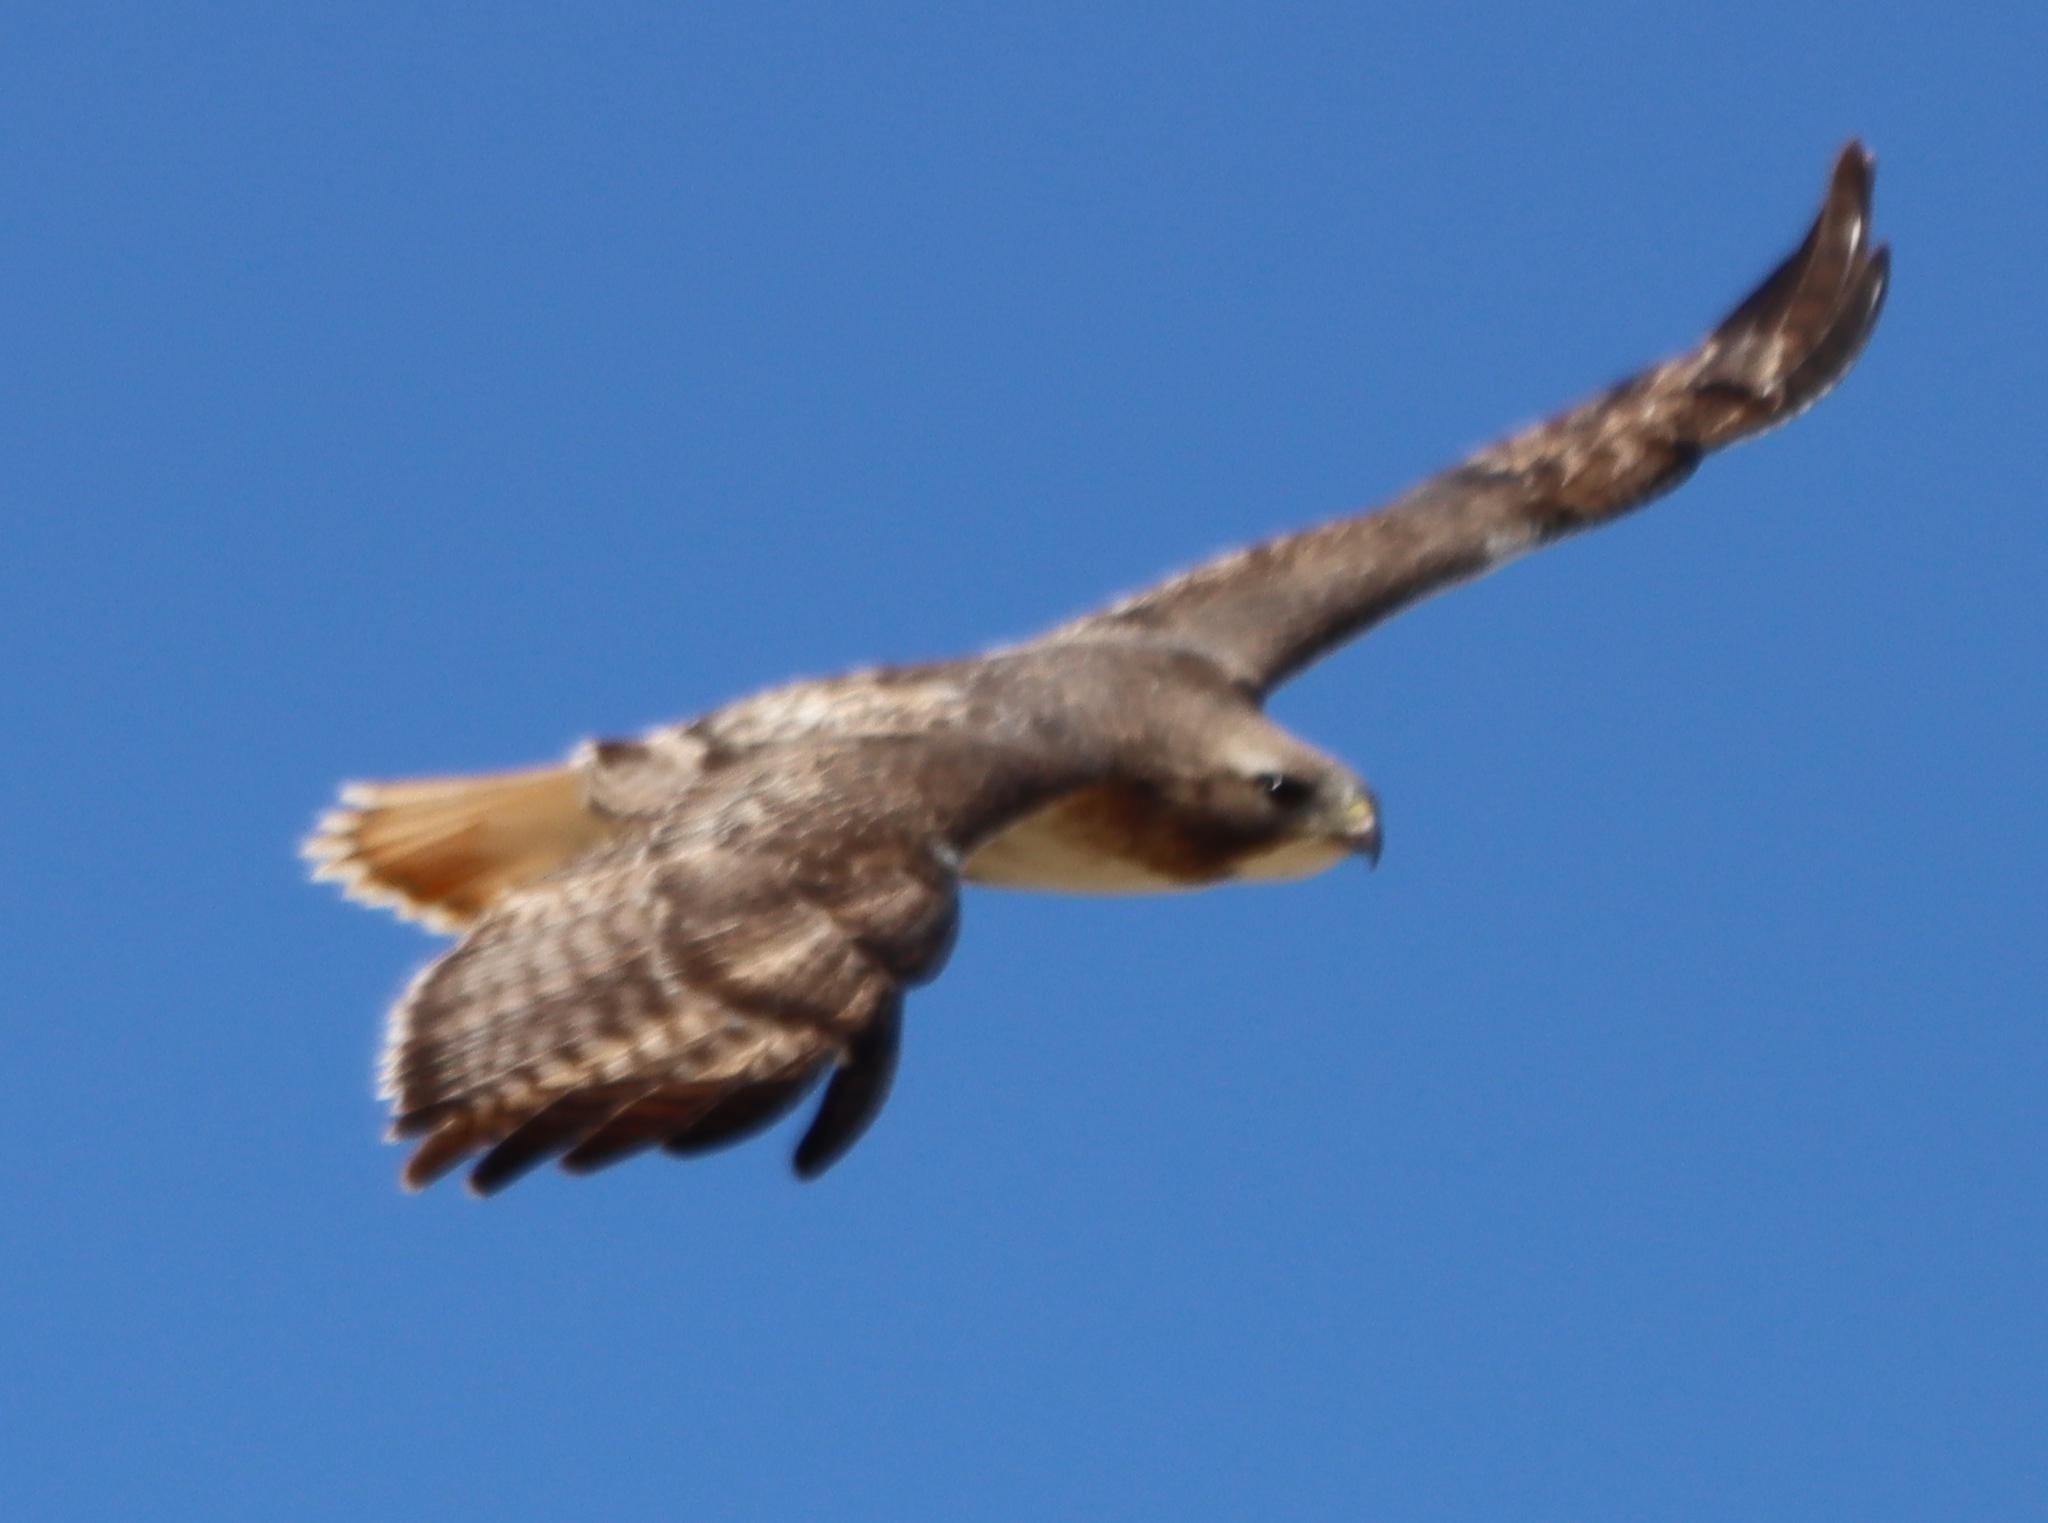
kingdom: Animalia
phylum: Chordata
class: Aves
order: Accipitriformes
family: Accipitridae
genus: Buteo
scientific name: Buteo jamaicensis
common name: Red-tailed hawk
